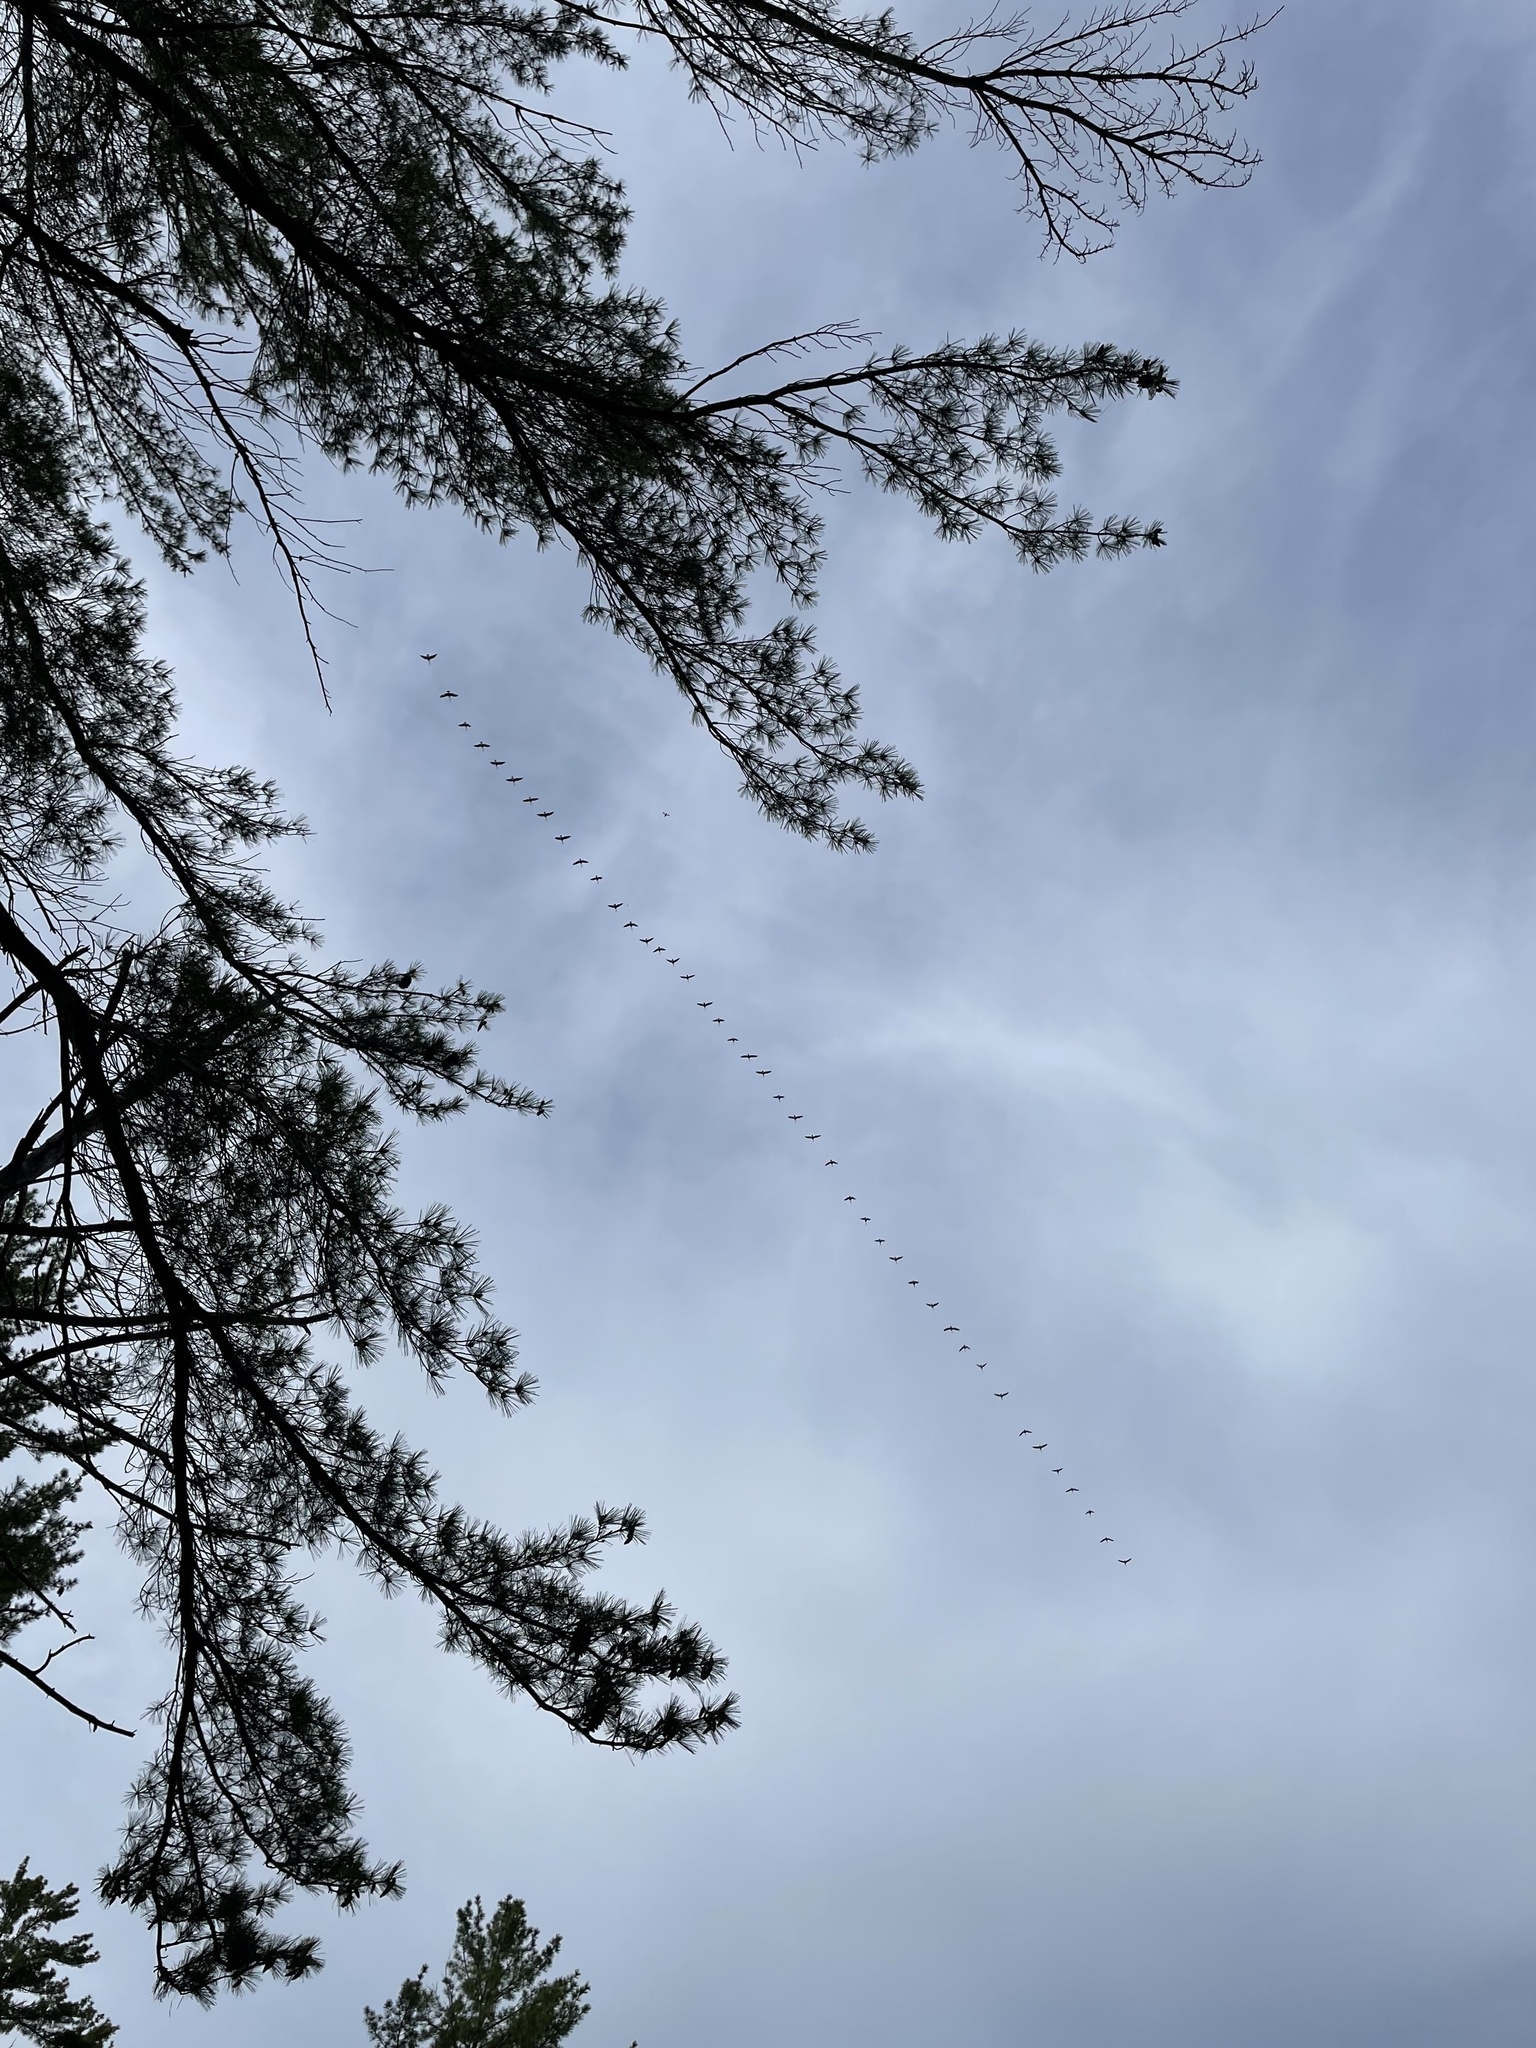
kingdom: Animalia
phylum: Chordata
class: Aves
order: Anseriformes
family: Anatidae
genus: Branta
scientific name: Branta canadensis
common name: Canada goose
